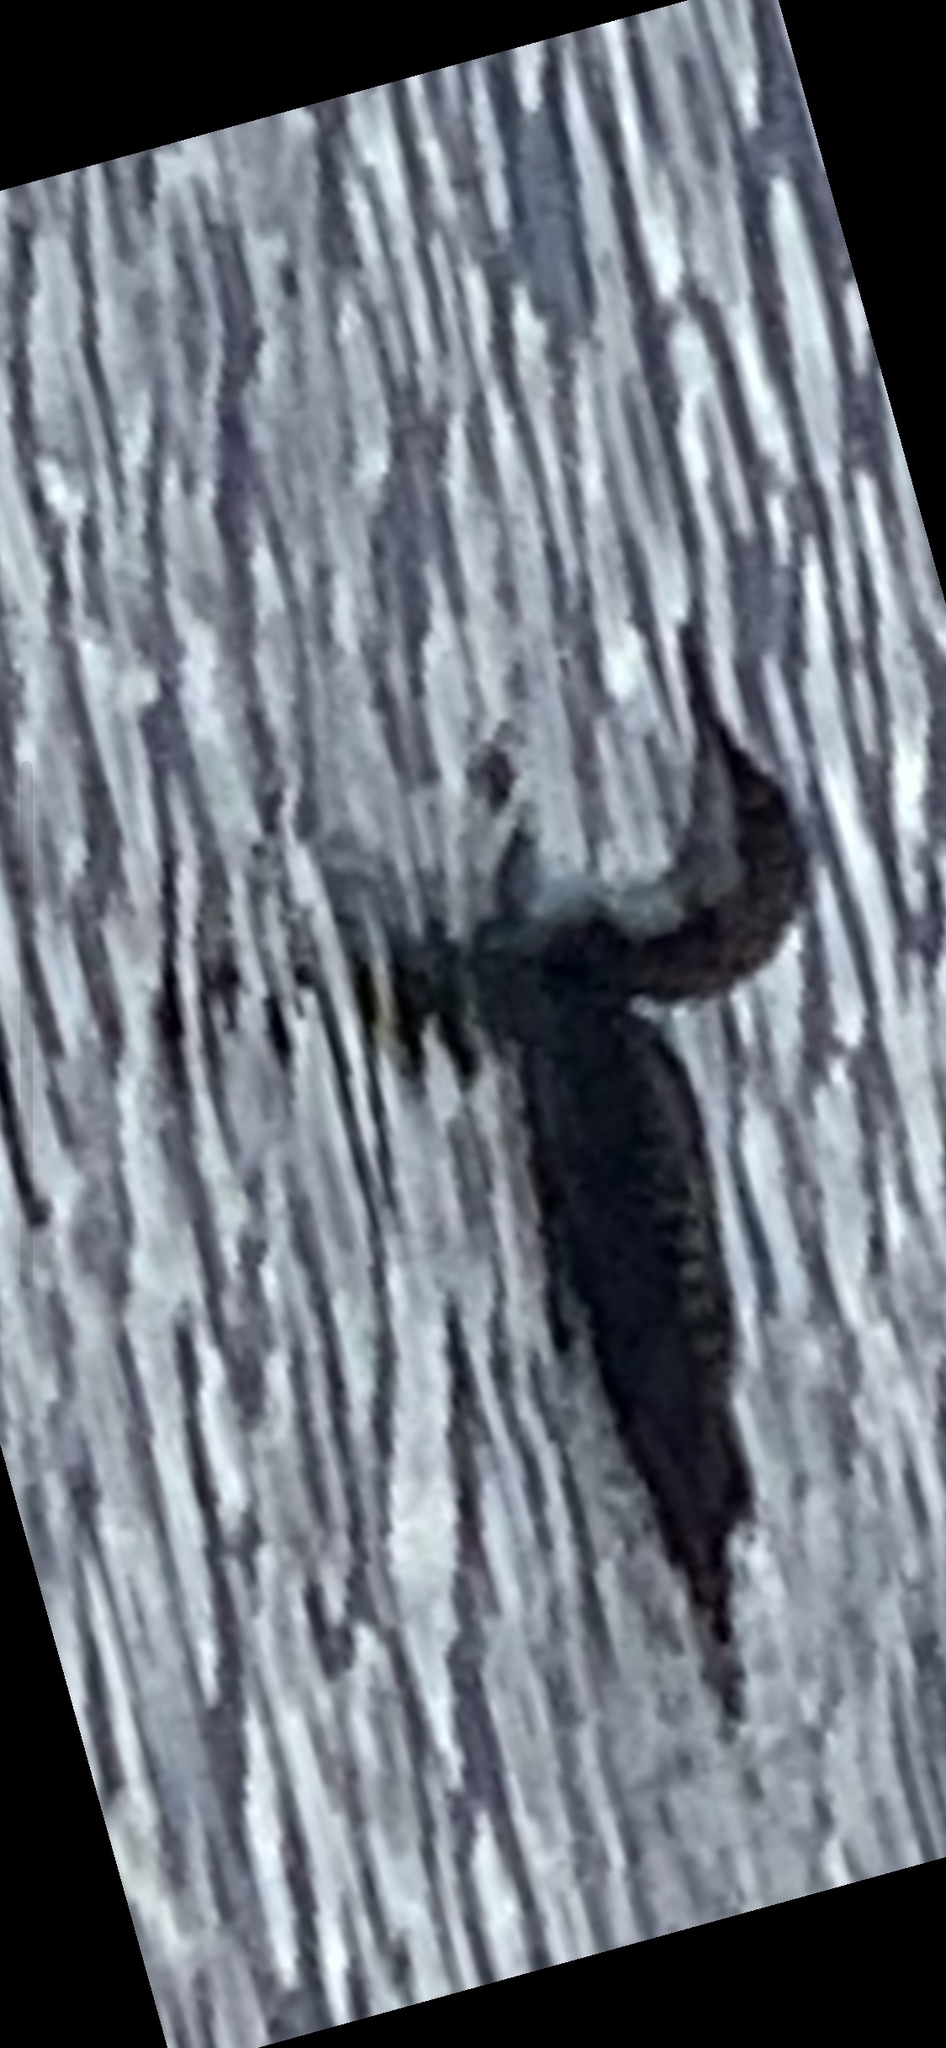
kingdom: Animalia
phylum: Chordata
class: Aves
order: Gaviiformes
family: Gaviidae
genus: Gavia
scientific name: Gavia pacifica
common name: Pacific loon
